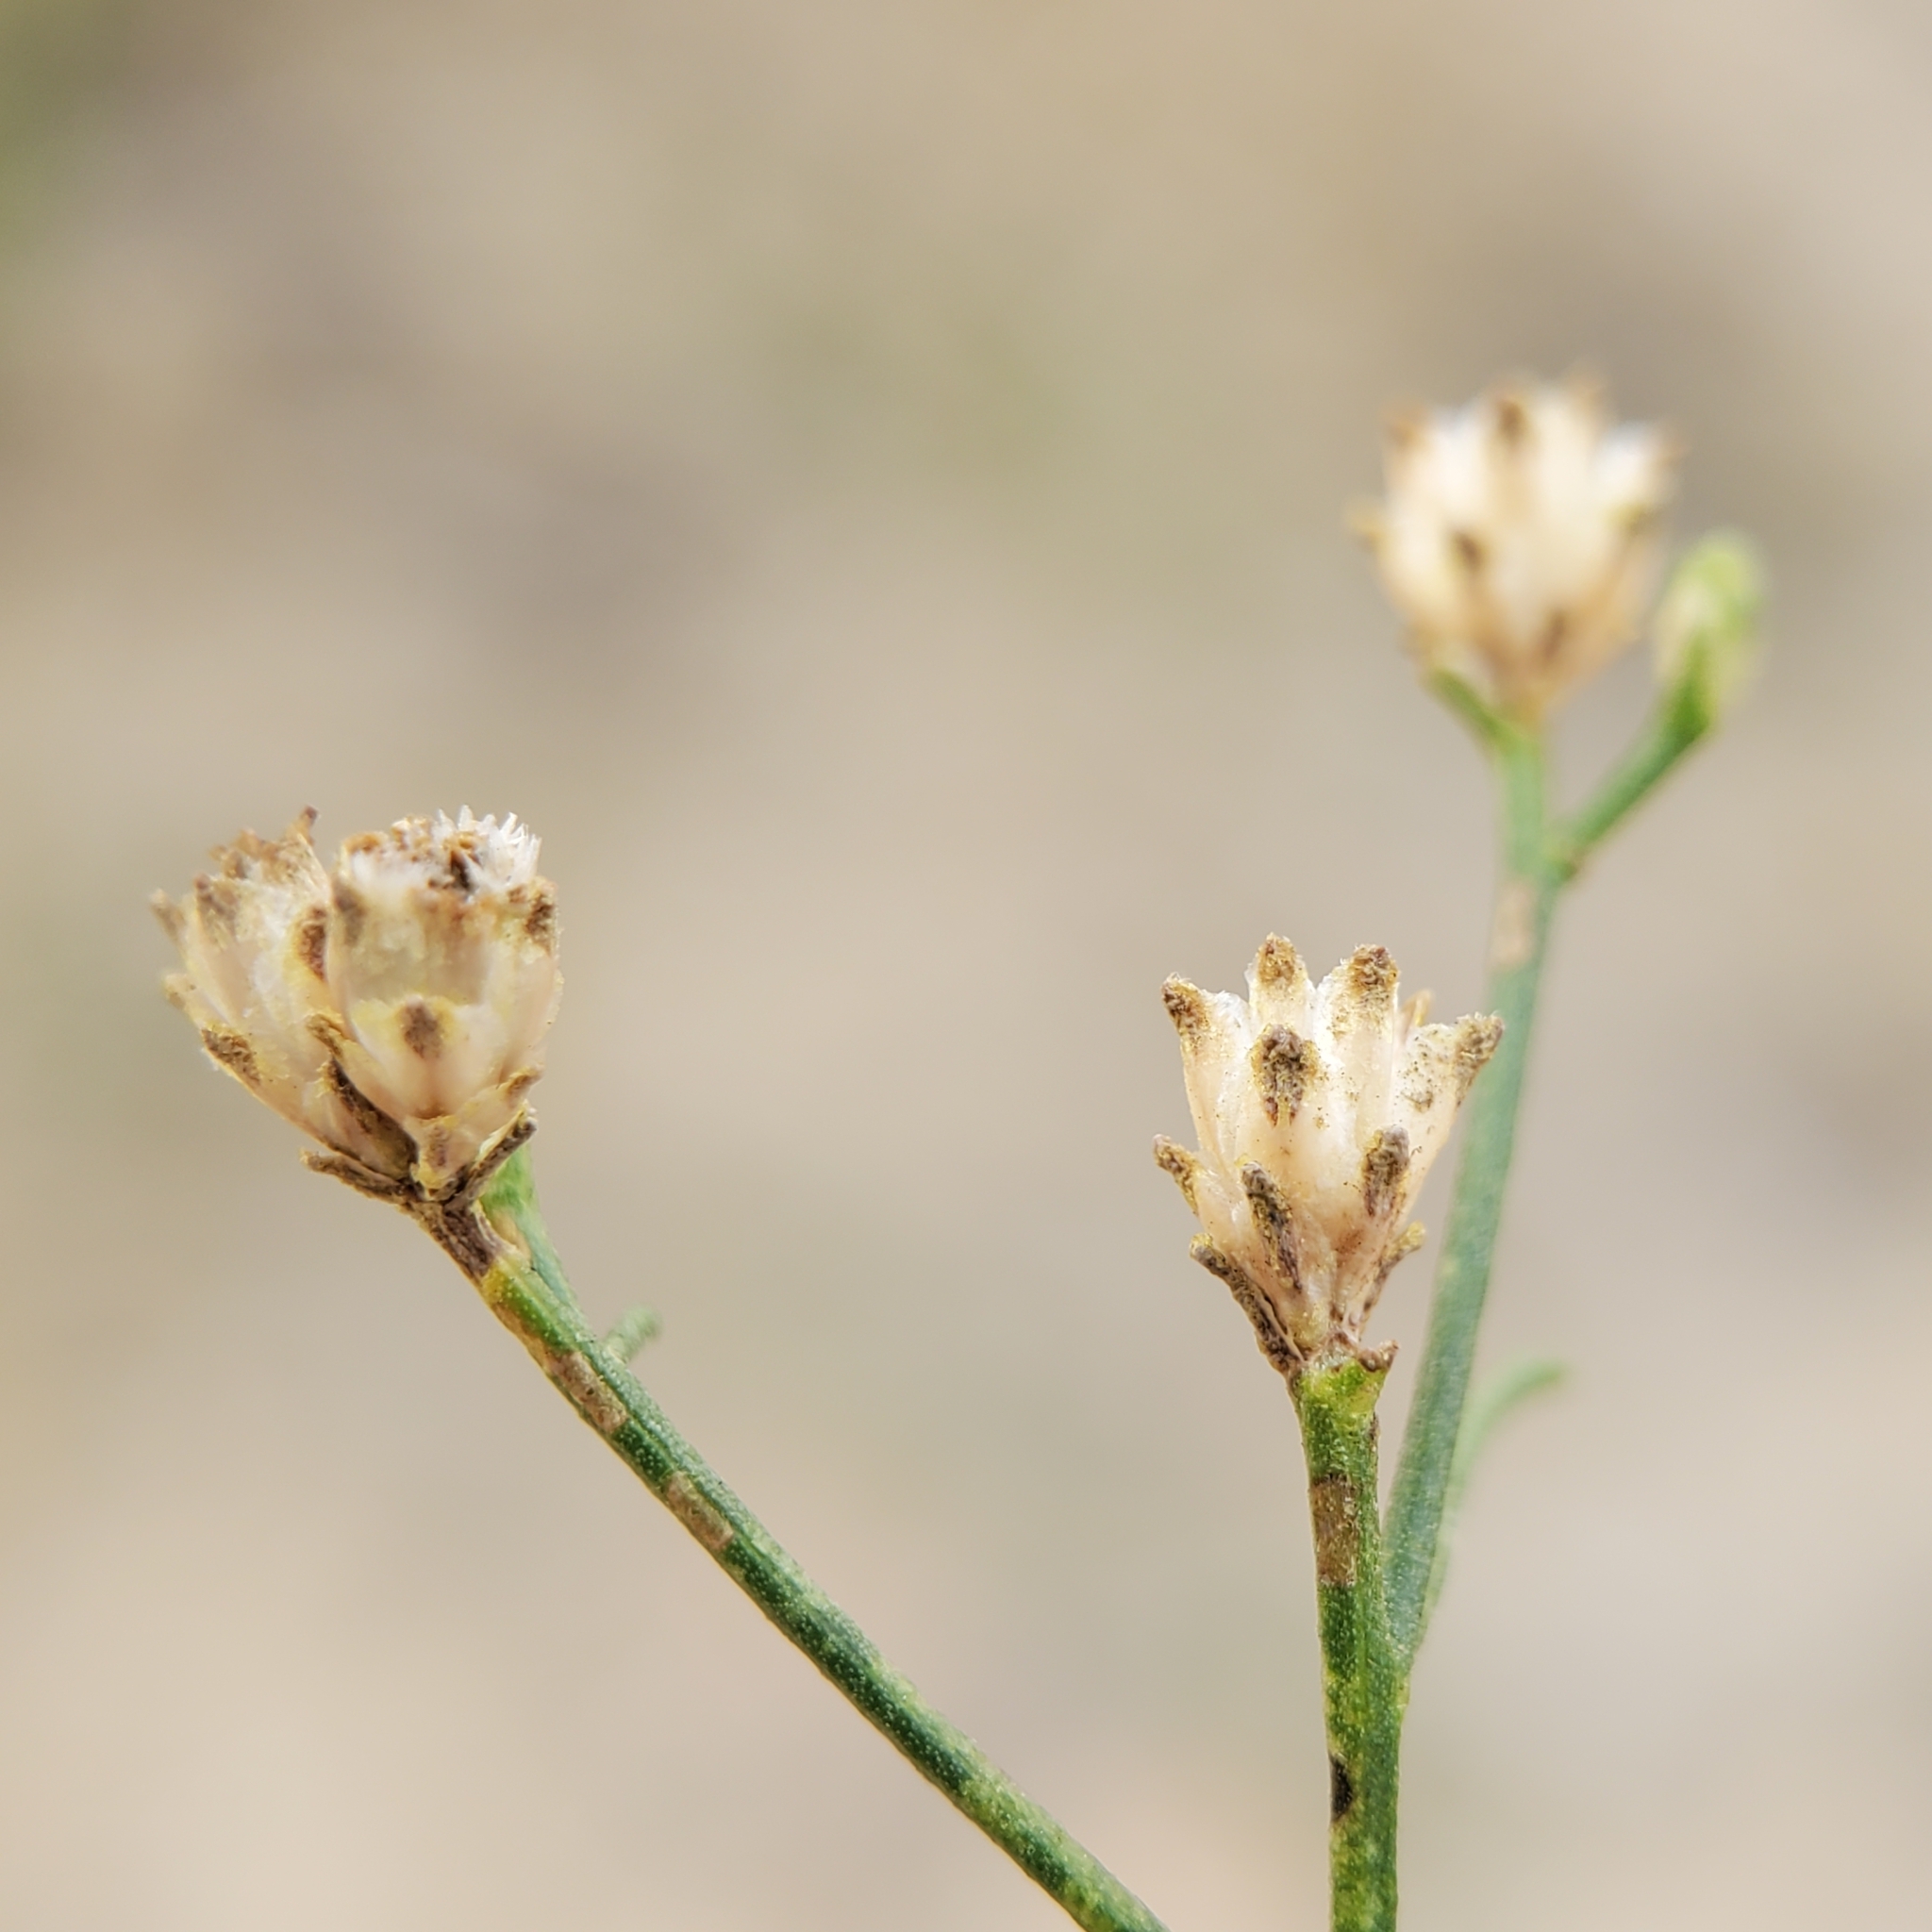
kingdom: Plantae
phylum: Tracheophyta
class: Magnoliopsida
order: Asterales
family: Asteraceae
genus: Gutierrezia
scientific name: Gutierrezia californica
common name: California matchweed
